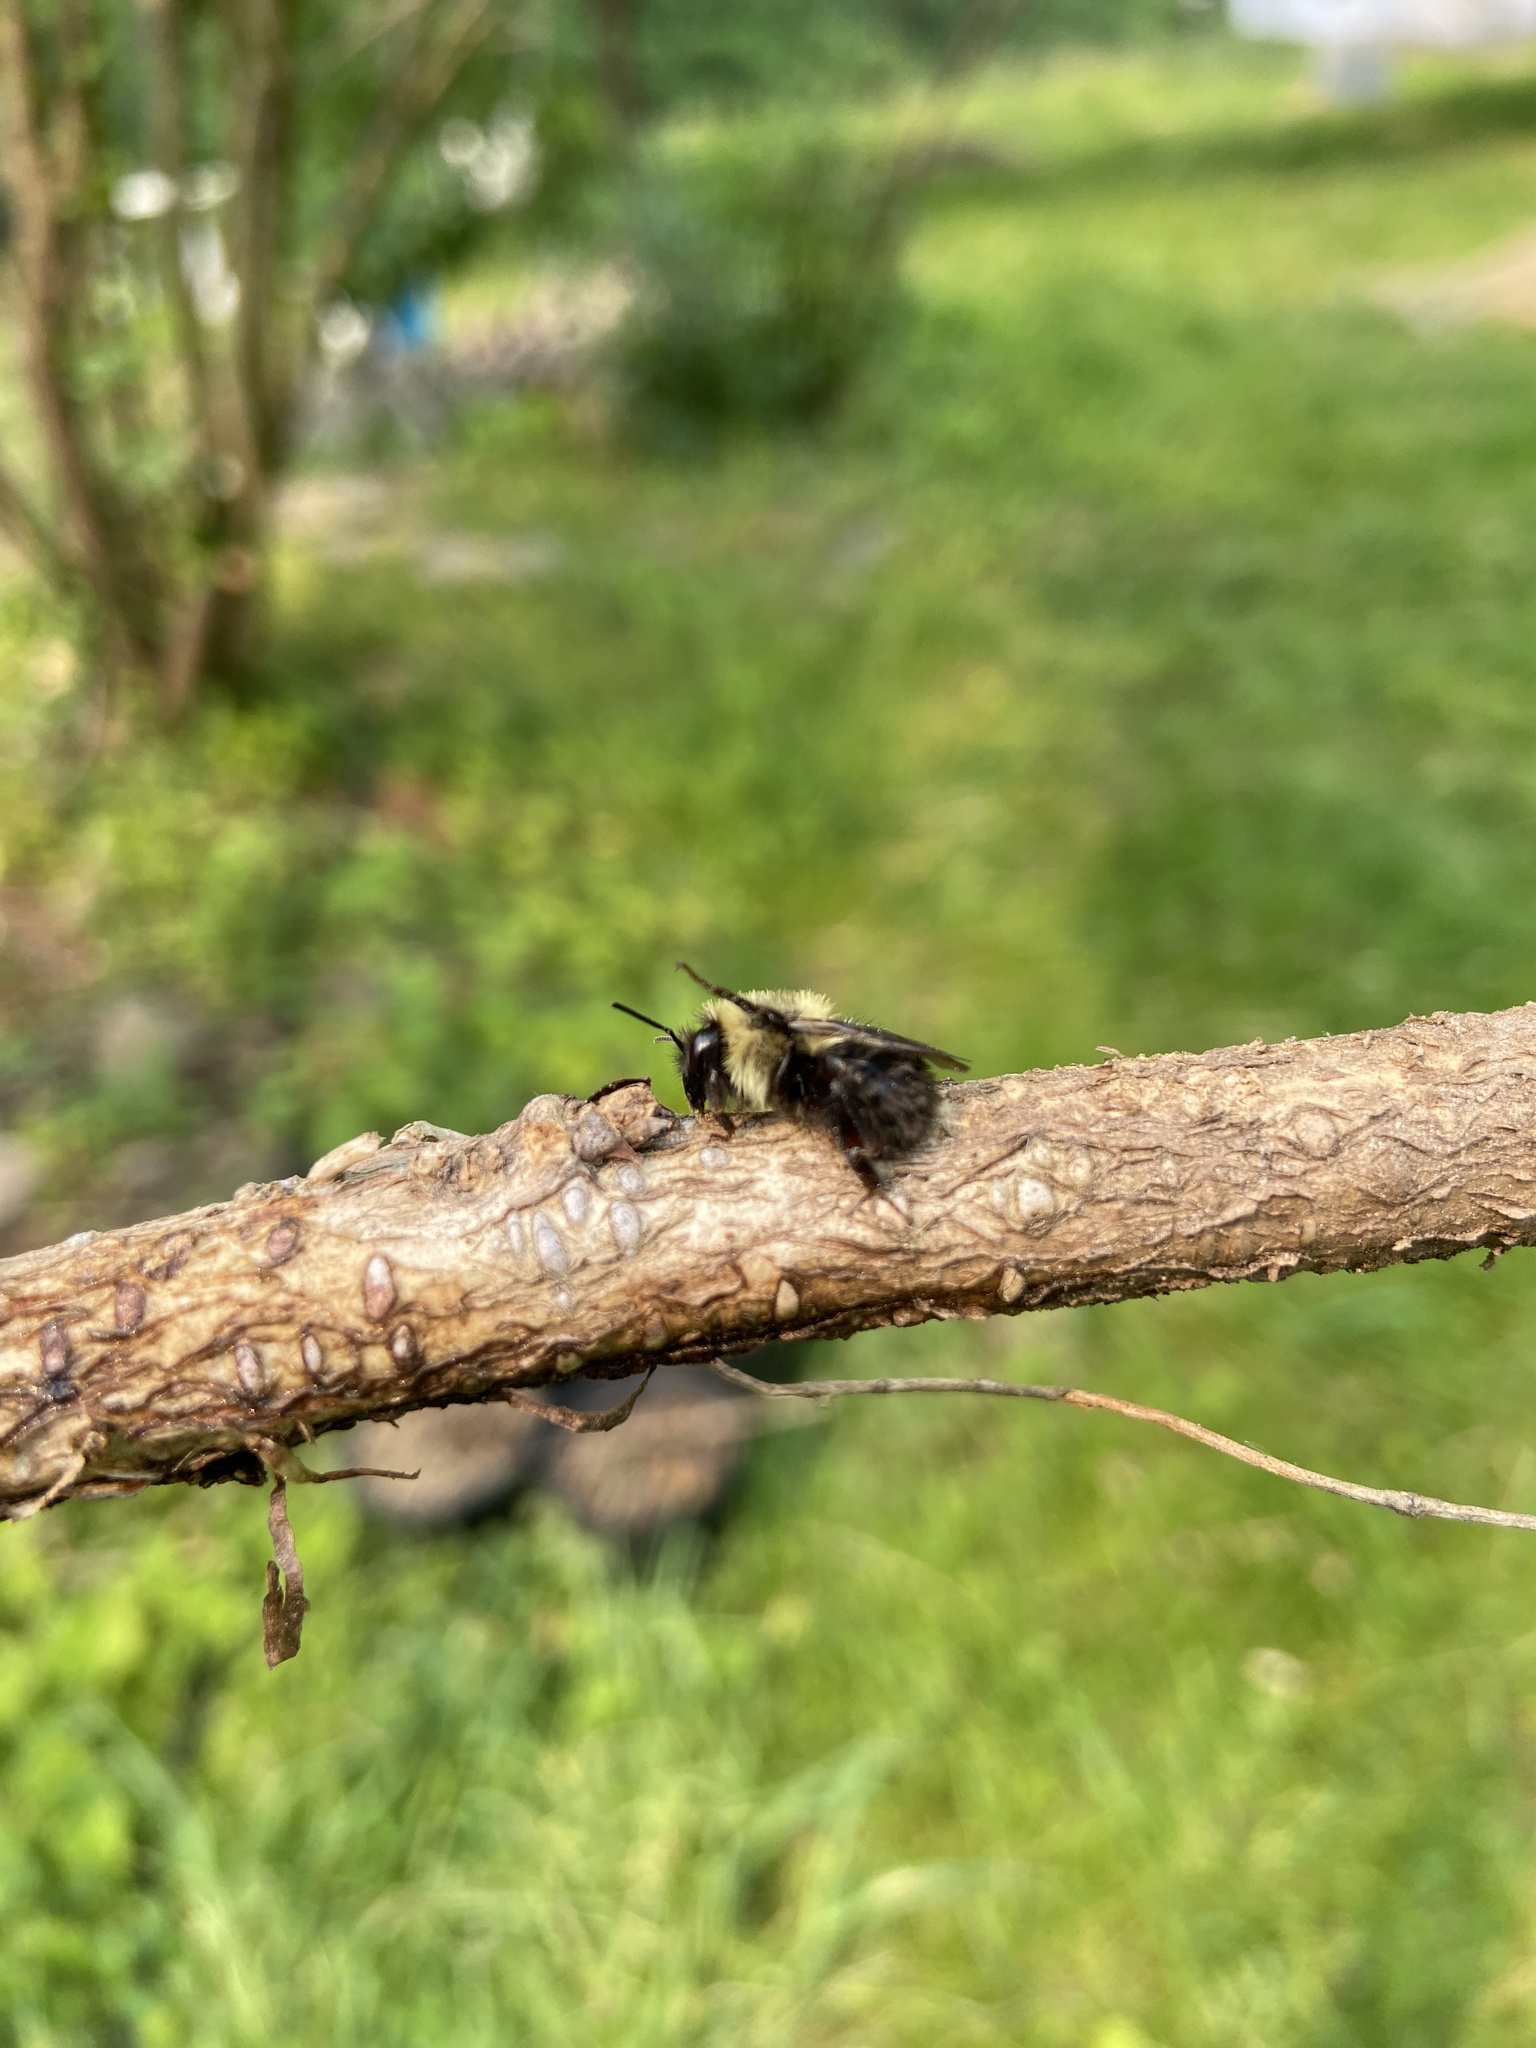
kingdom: Animalia
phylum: Arthropoda
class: Insecta
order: Hymenoptera
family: Apidae
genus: Bombus
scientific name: Bombus bimaculatus
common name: Two-spotted bumble bee
